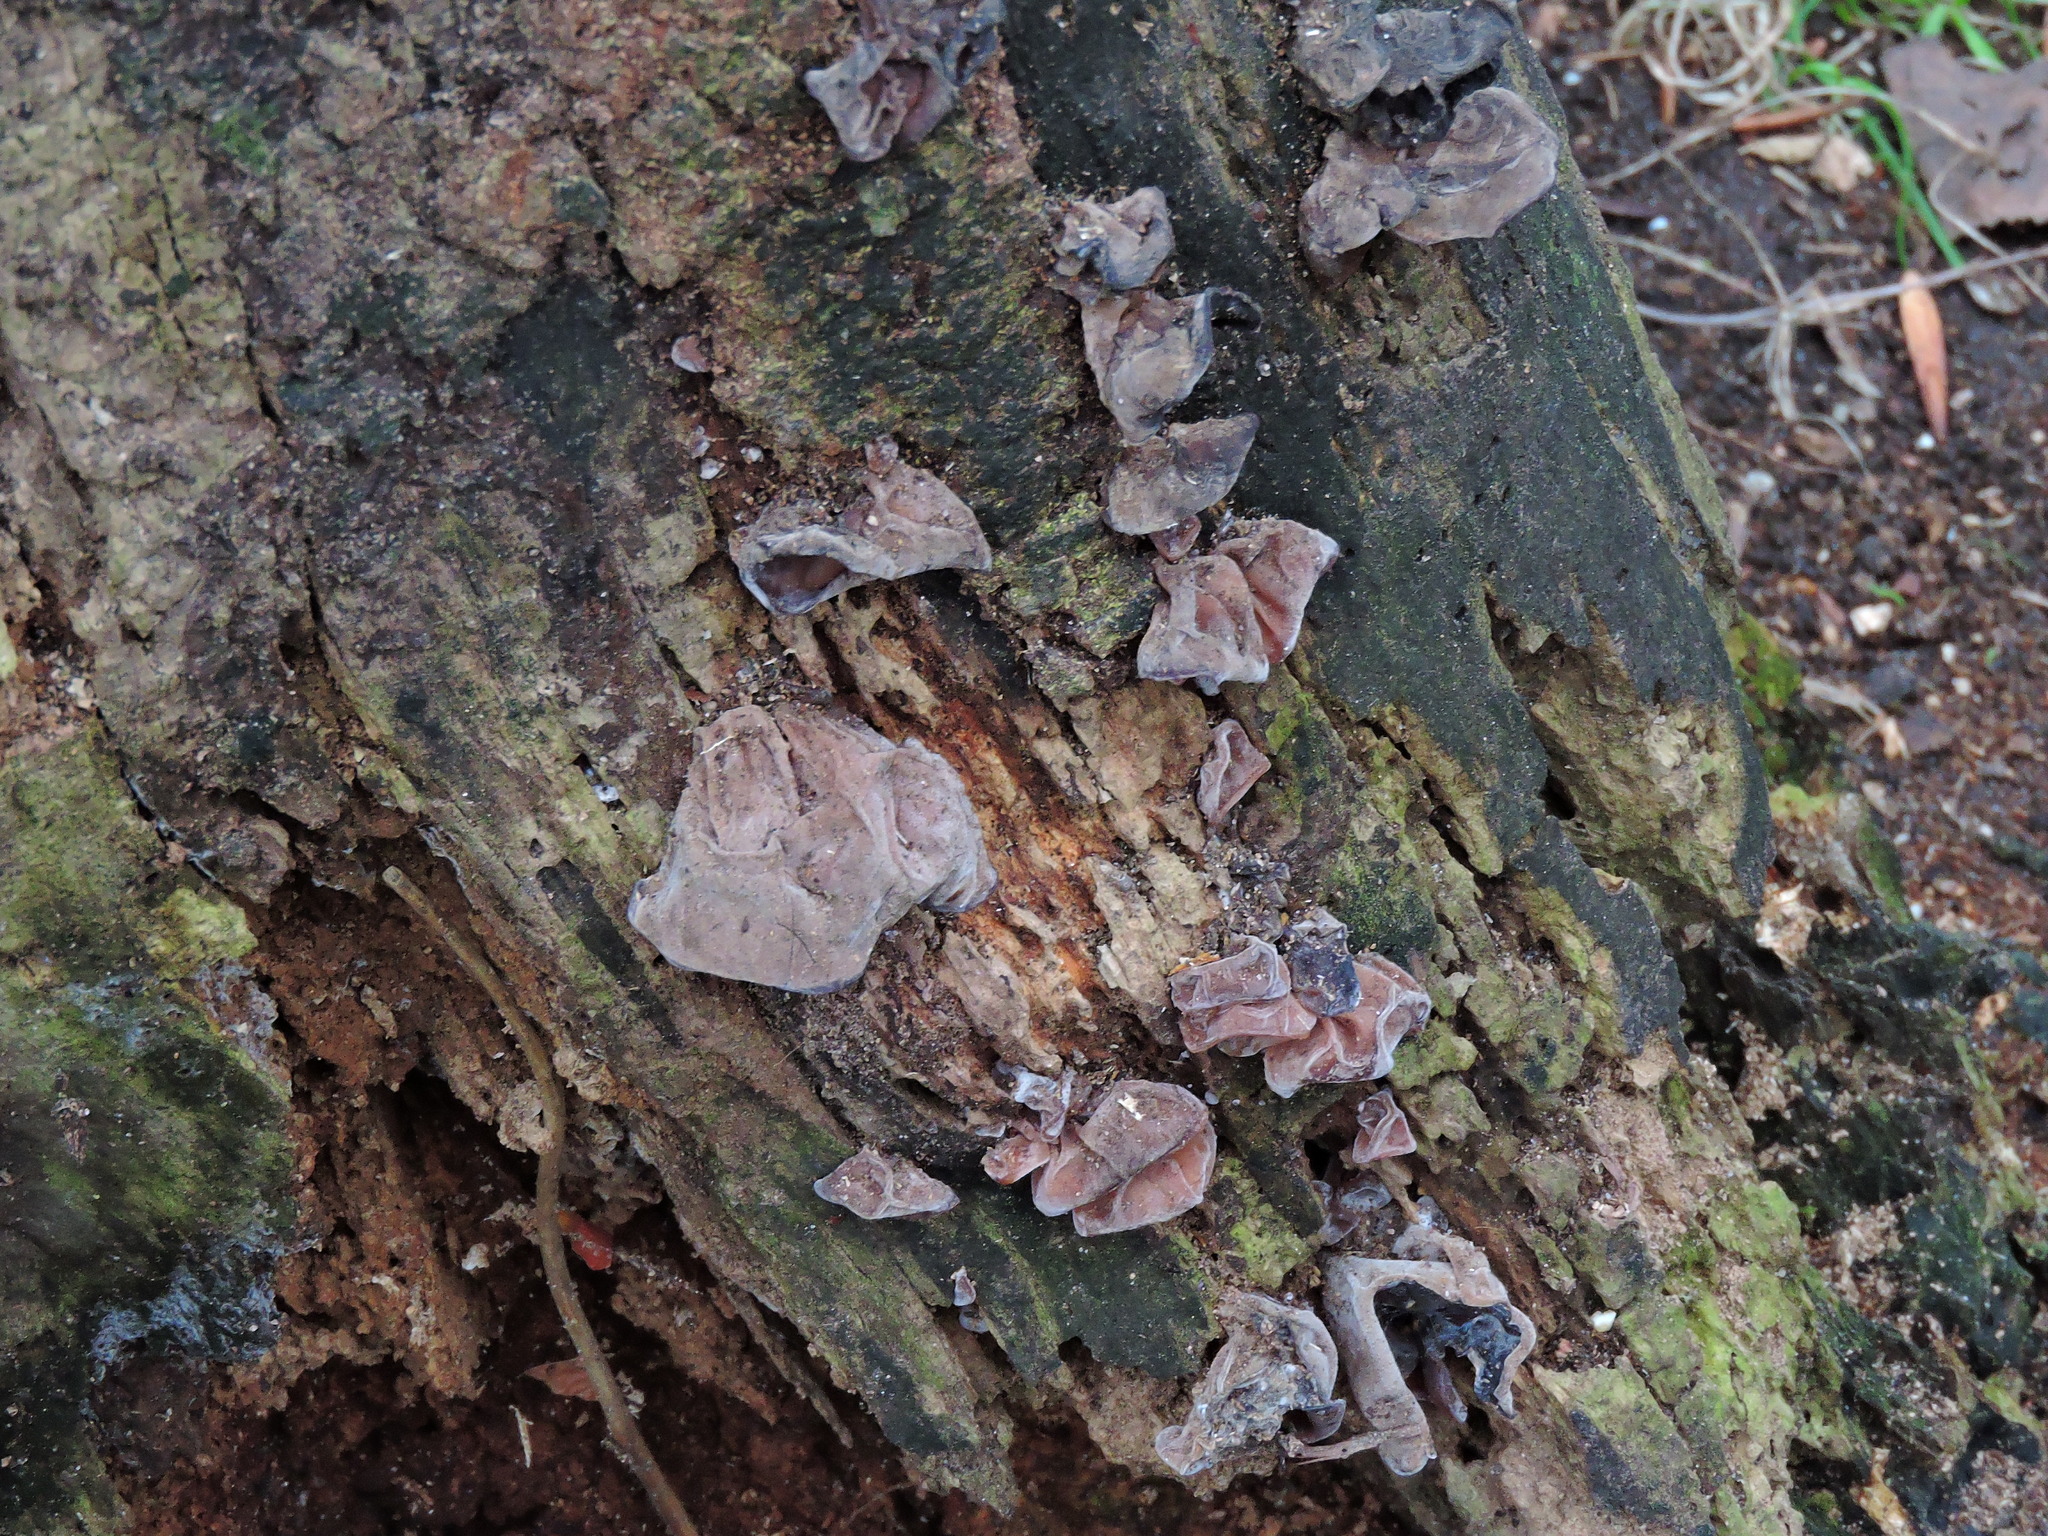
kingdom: Fungi
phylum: Basidiomycota
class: Agaricomycetes
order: Auriculariales
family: Auriculariaceae
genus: Auricularia
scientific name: Auricularia auricula-judae
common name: Jelly ear
